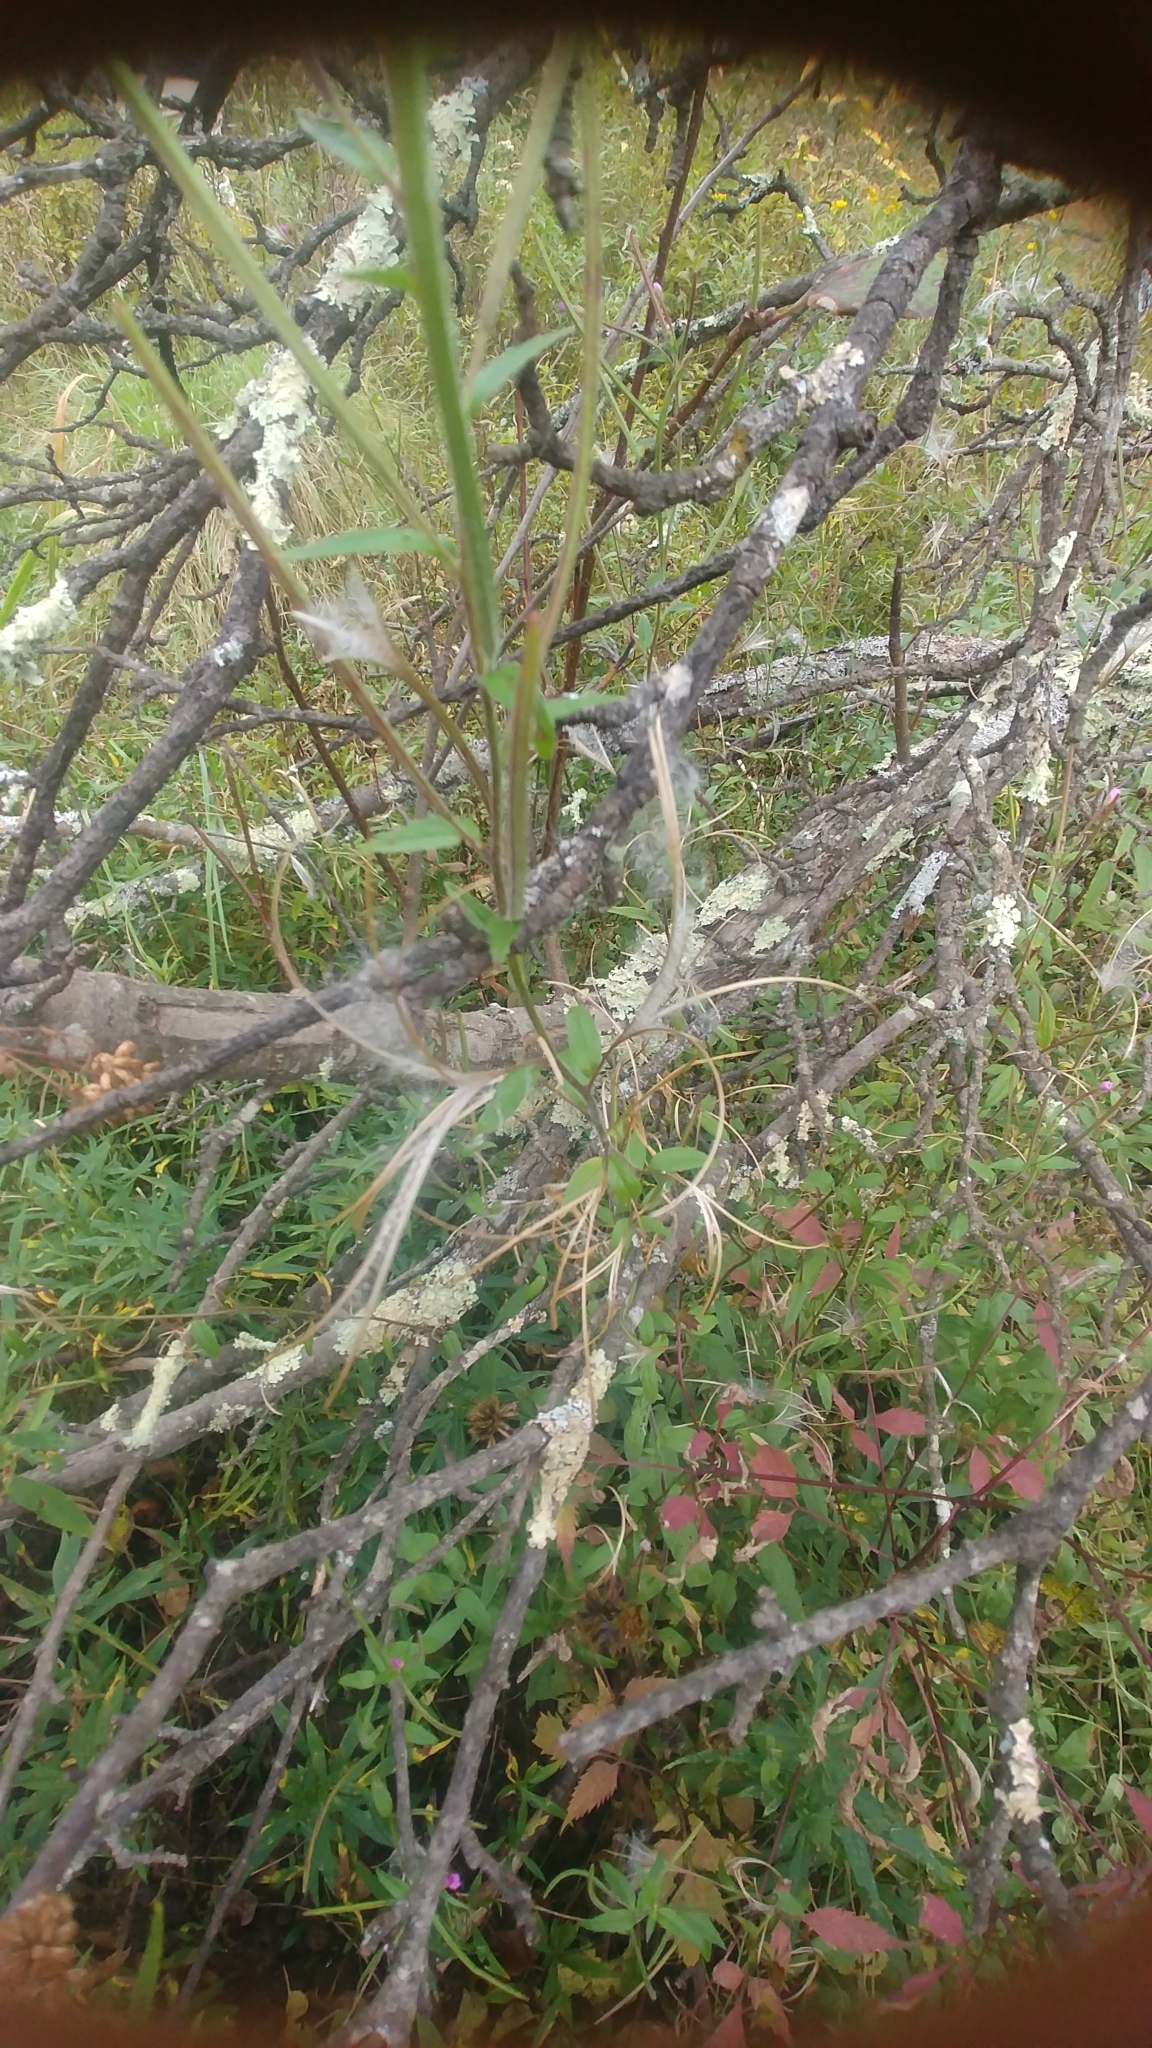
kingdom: Plantae
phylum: Tracheophyta
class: Magnoliopsida
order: Myrtales
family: Onagraceae
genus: Epilobium
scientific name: Epilobium coloratum
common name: Bronze willowherb
